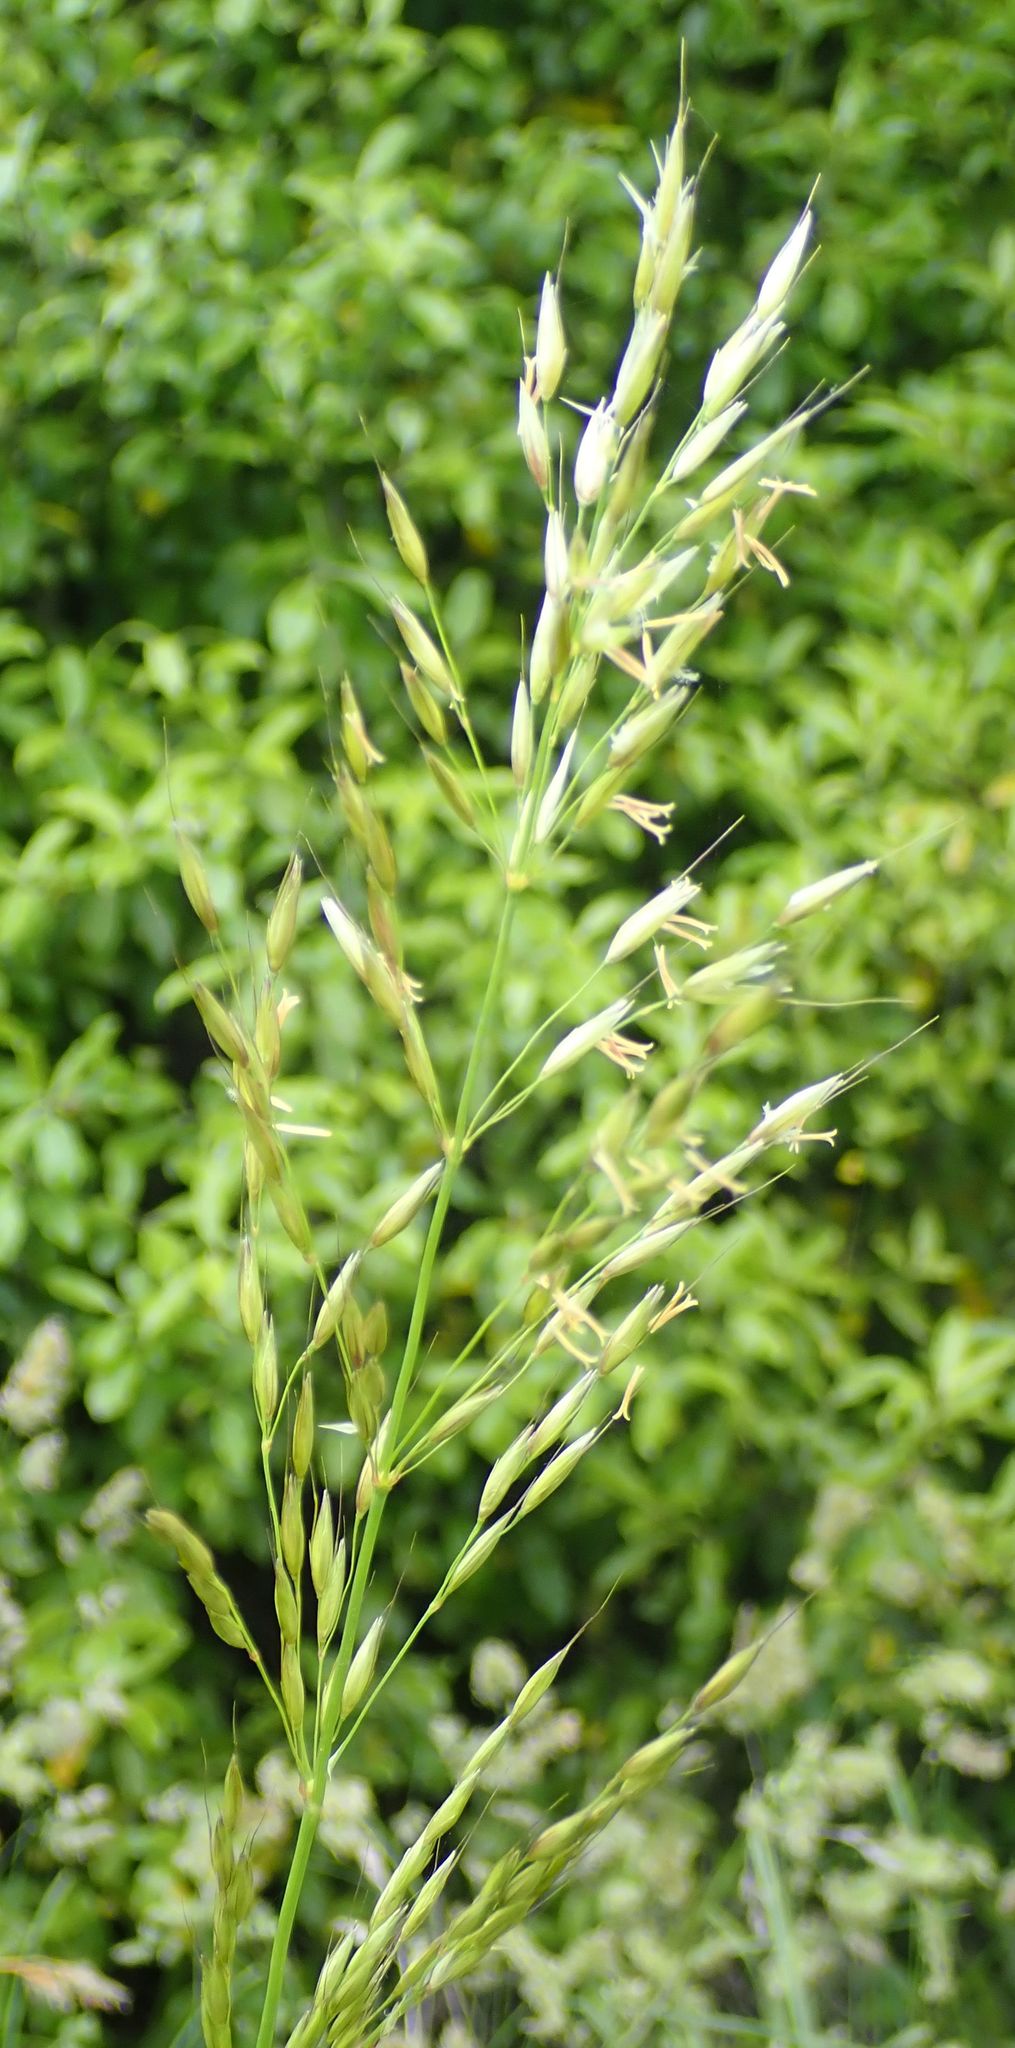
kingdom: Plantae
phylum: Tracheophyta
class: Liliopsida
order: Poales
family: Poaceae
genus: Arrhenatherum
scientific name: Arrhenatherum elatius
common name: Tall oatgrass
